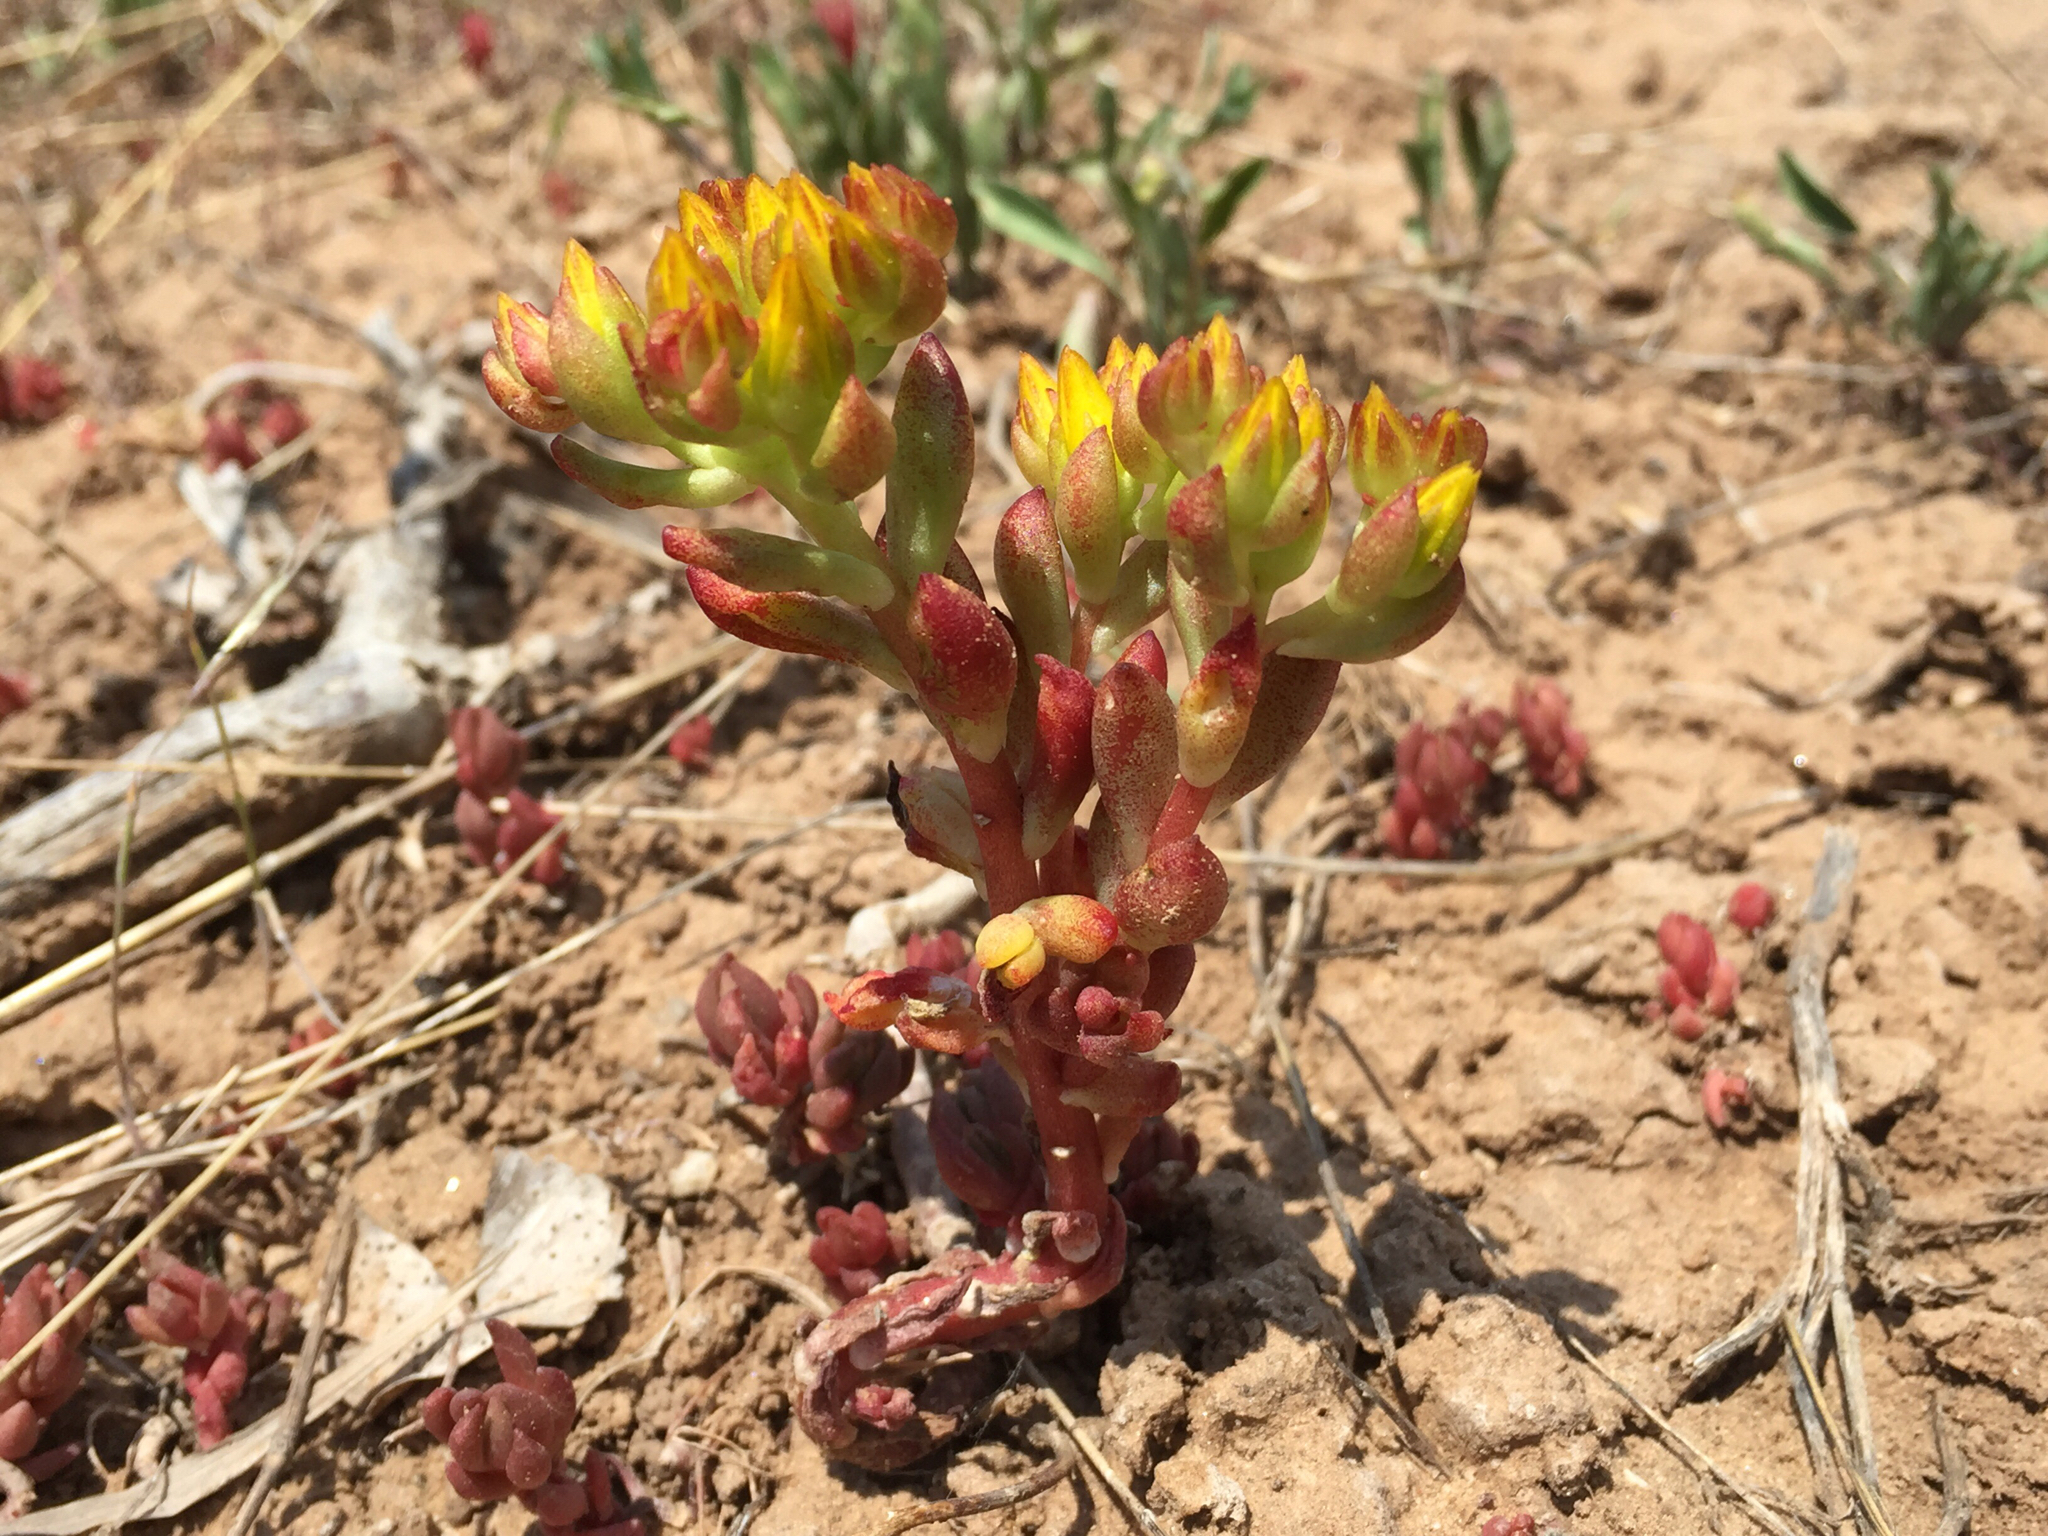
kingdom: Plantae
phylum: Tracheophyta
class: Magnoliopsida
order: Saxifragales
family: Crassulaceae
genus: Sedum
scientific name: Sedum lanceolatum
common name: Common stonecrop
